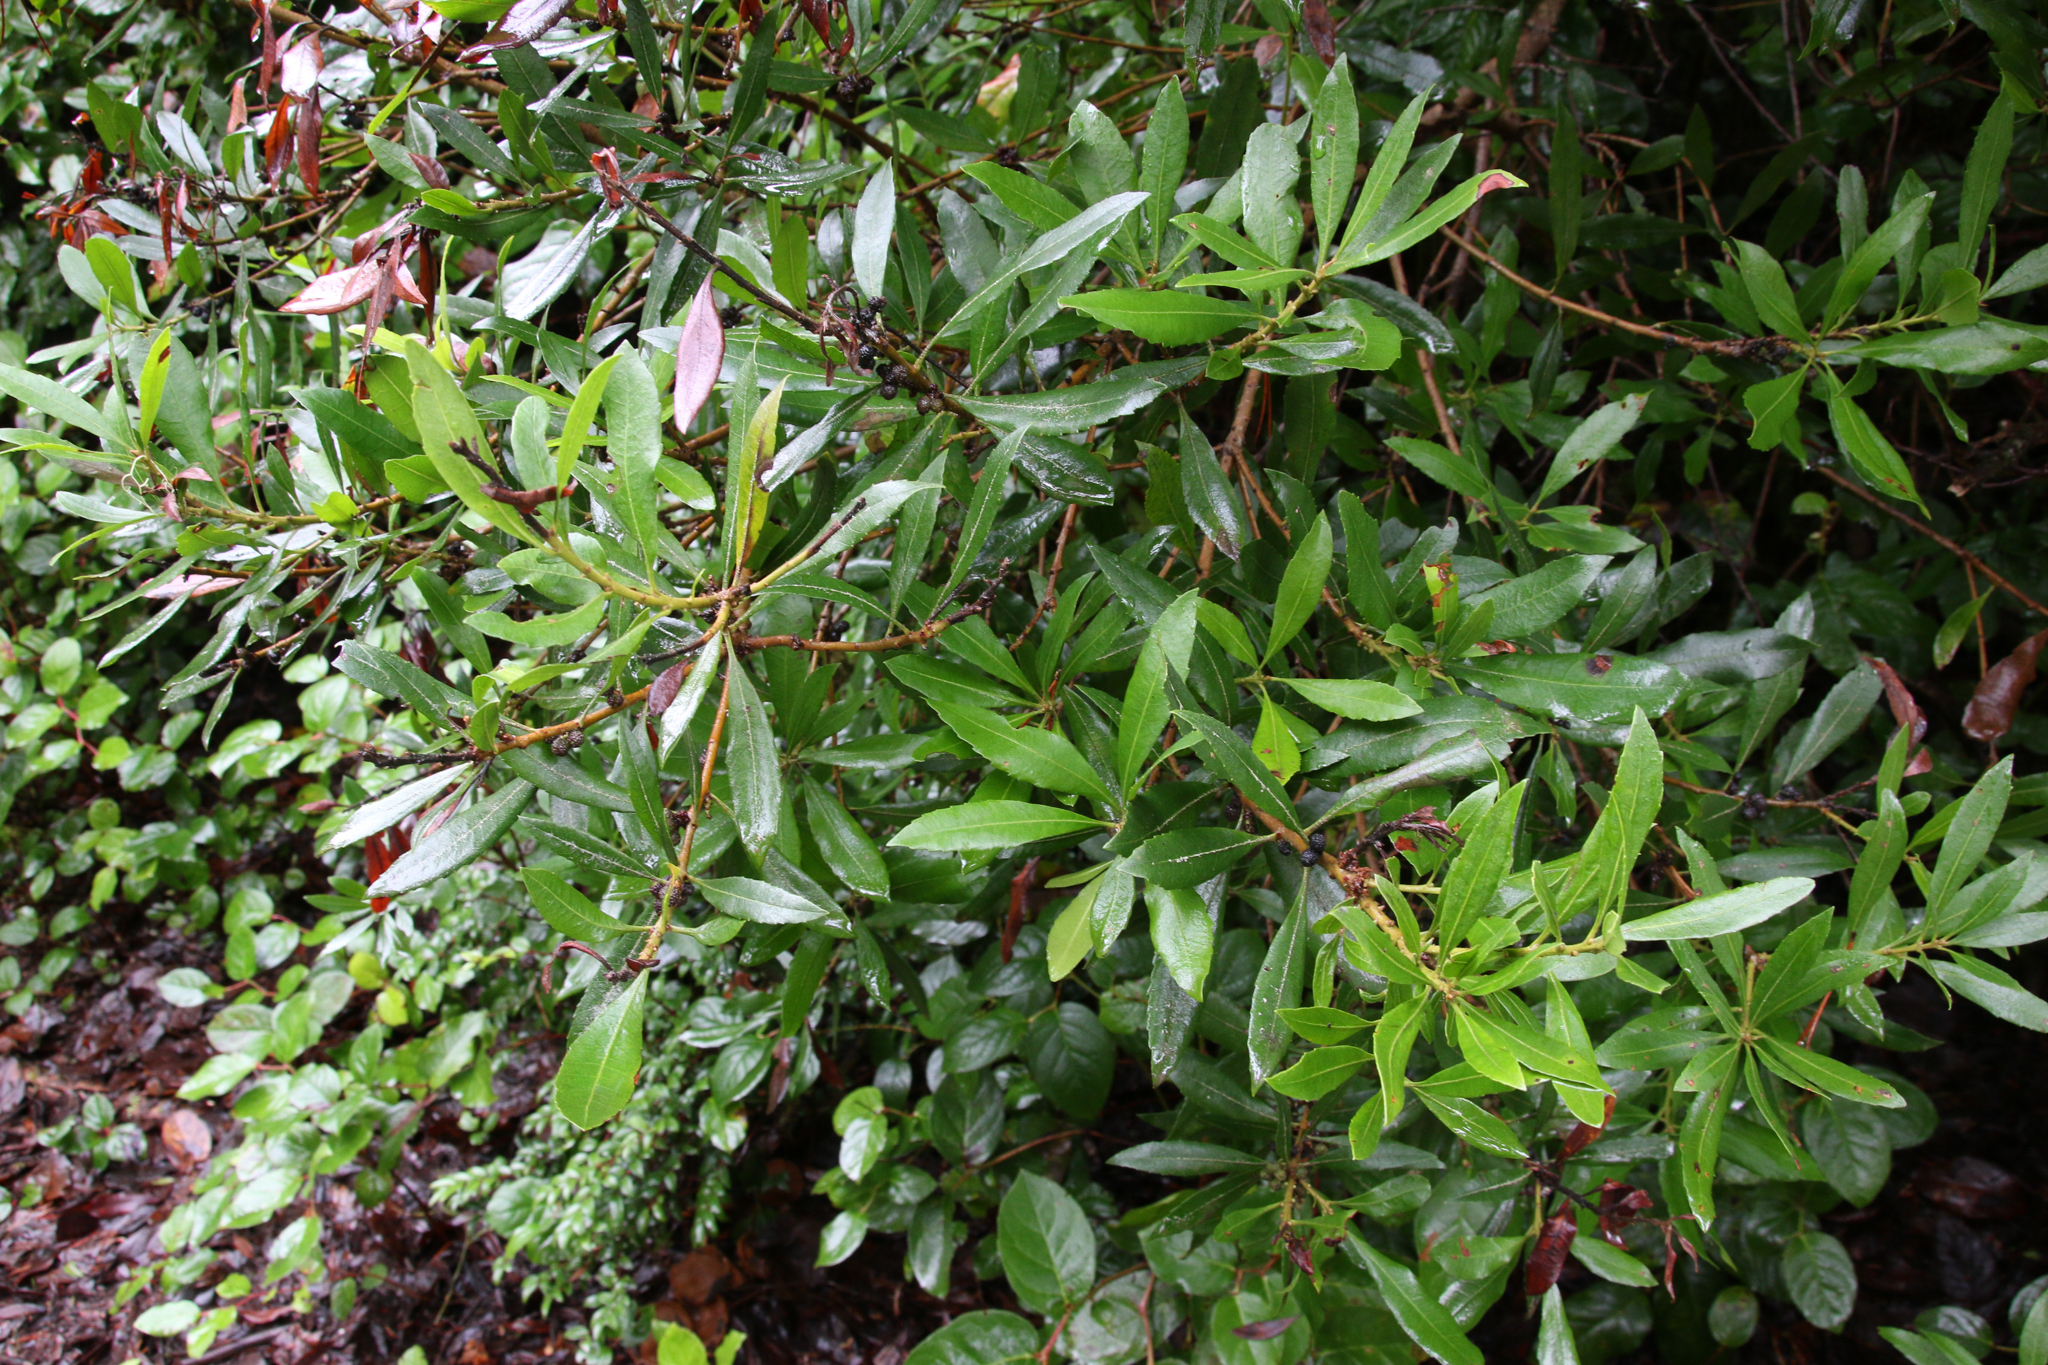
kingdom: Plantae
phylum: Tracheophyta
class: Magnoliopsida
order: Fagales
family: Myricaceae
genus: Morella
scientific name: Morella californica
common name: California wax-myrtle
